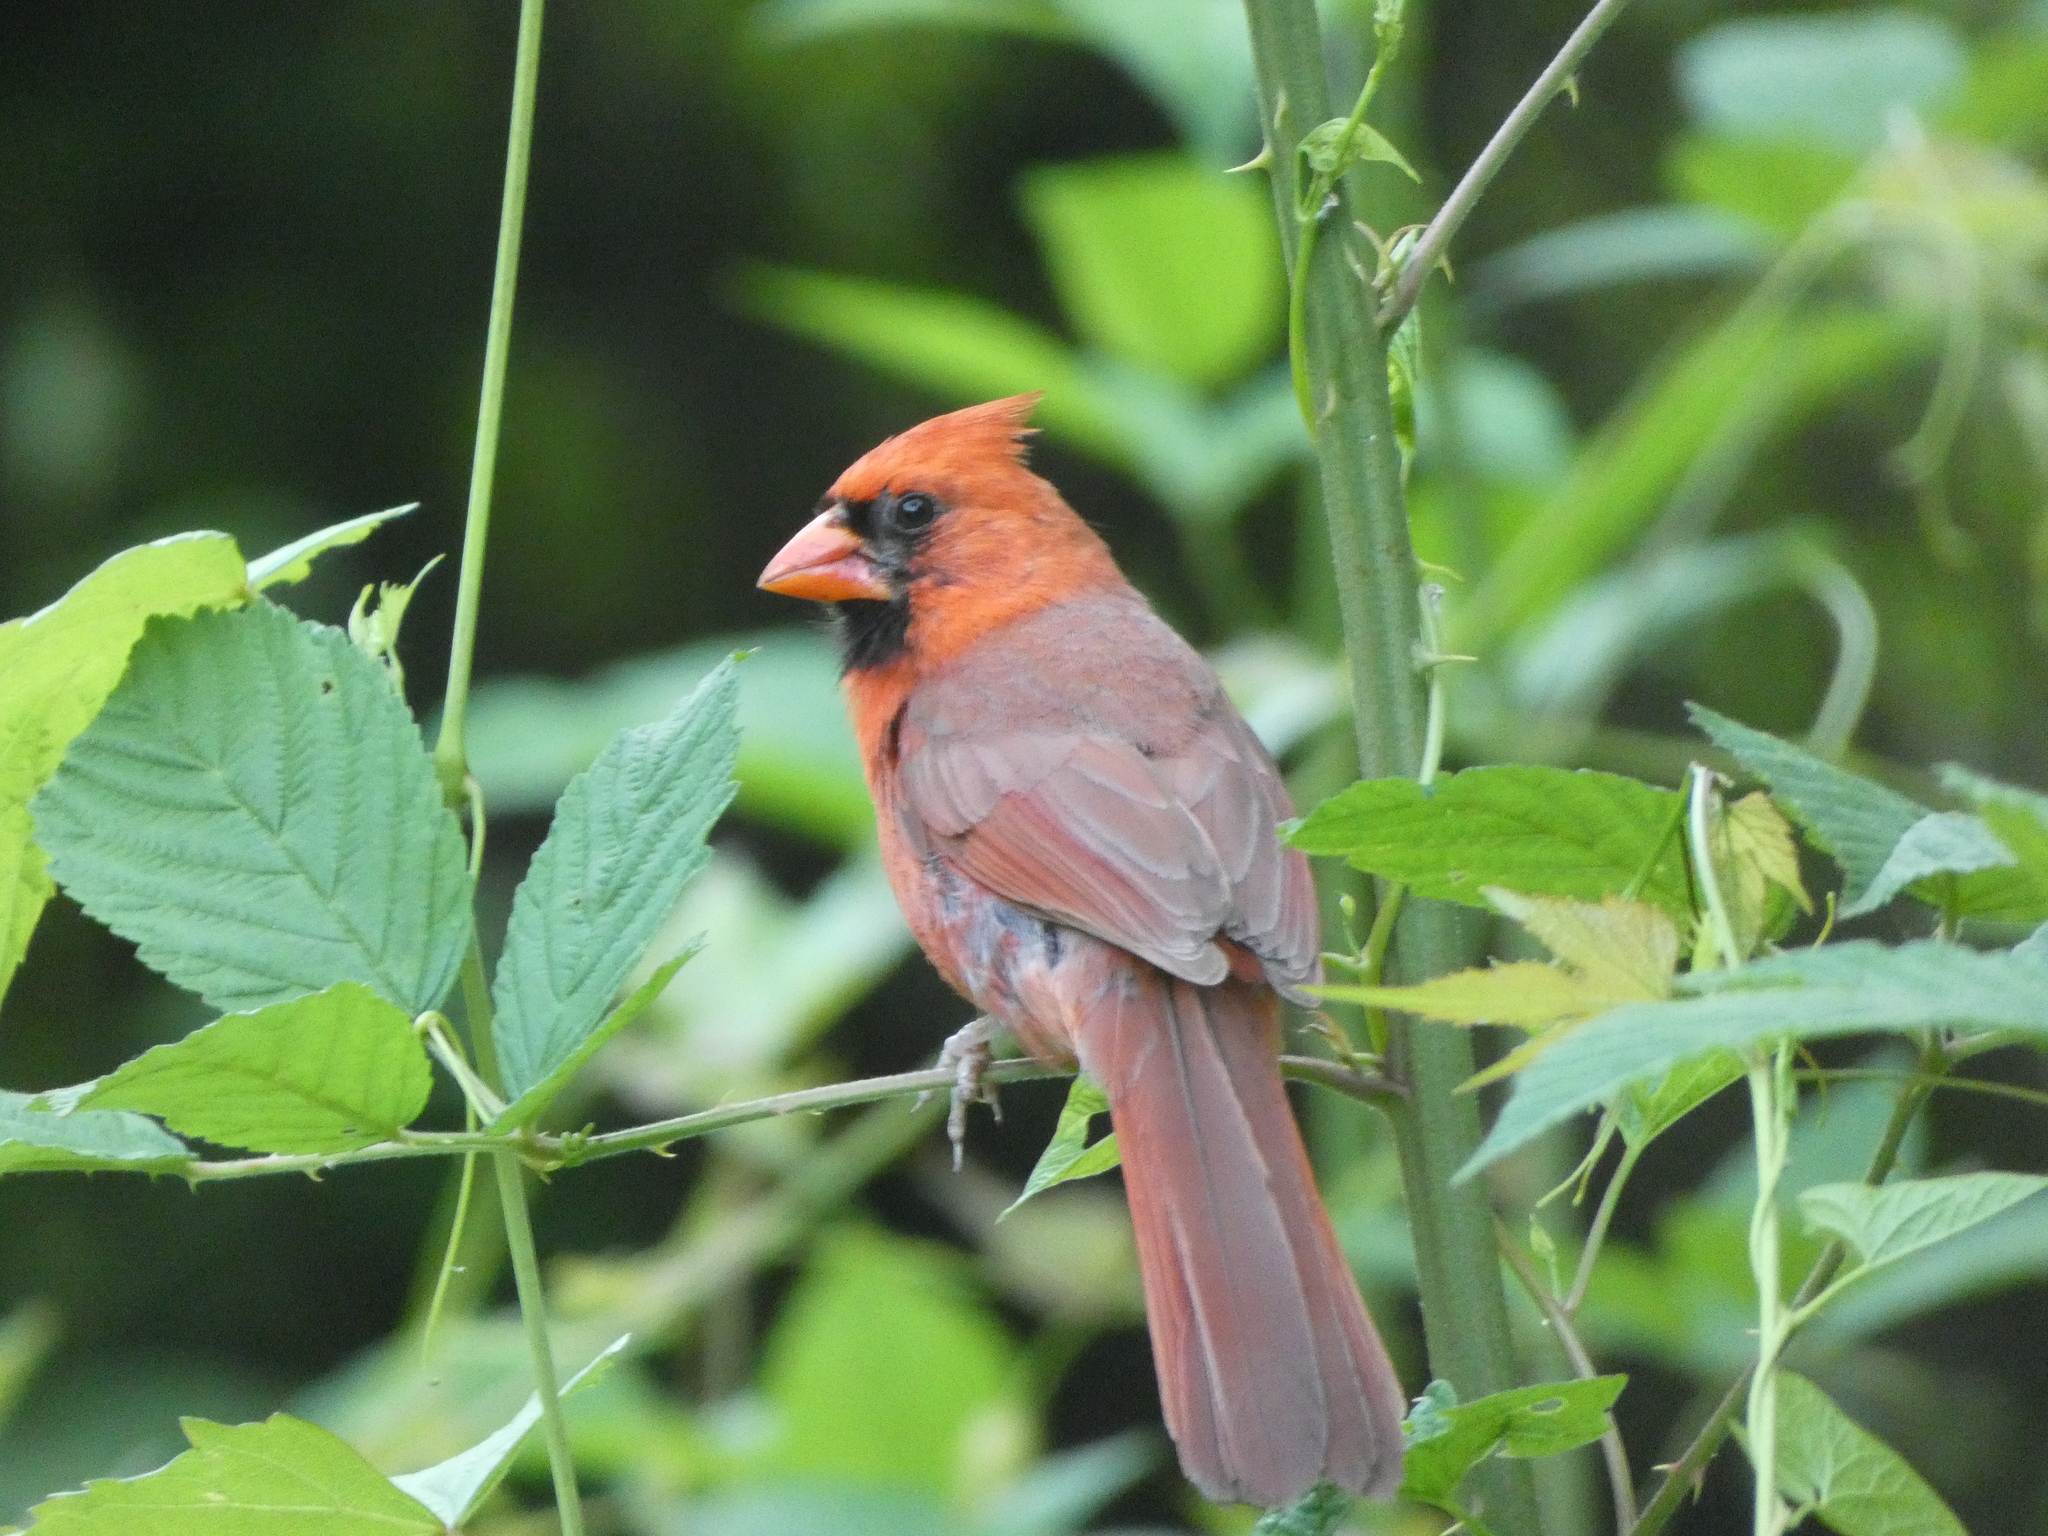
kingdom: Animalia
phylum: Chordata
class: Aves
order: Passeriformes
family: Cardinalidae
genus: Cardinalis
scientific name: Cardinalis cardinalis
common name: Northern cardinal
